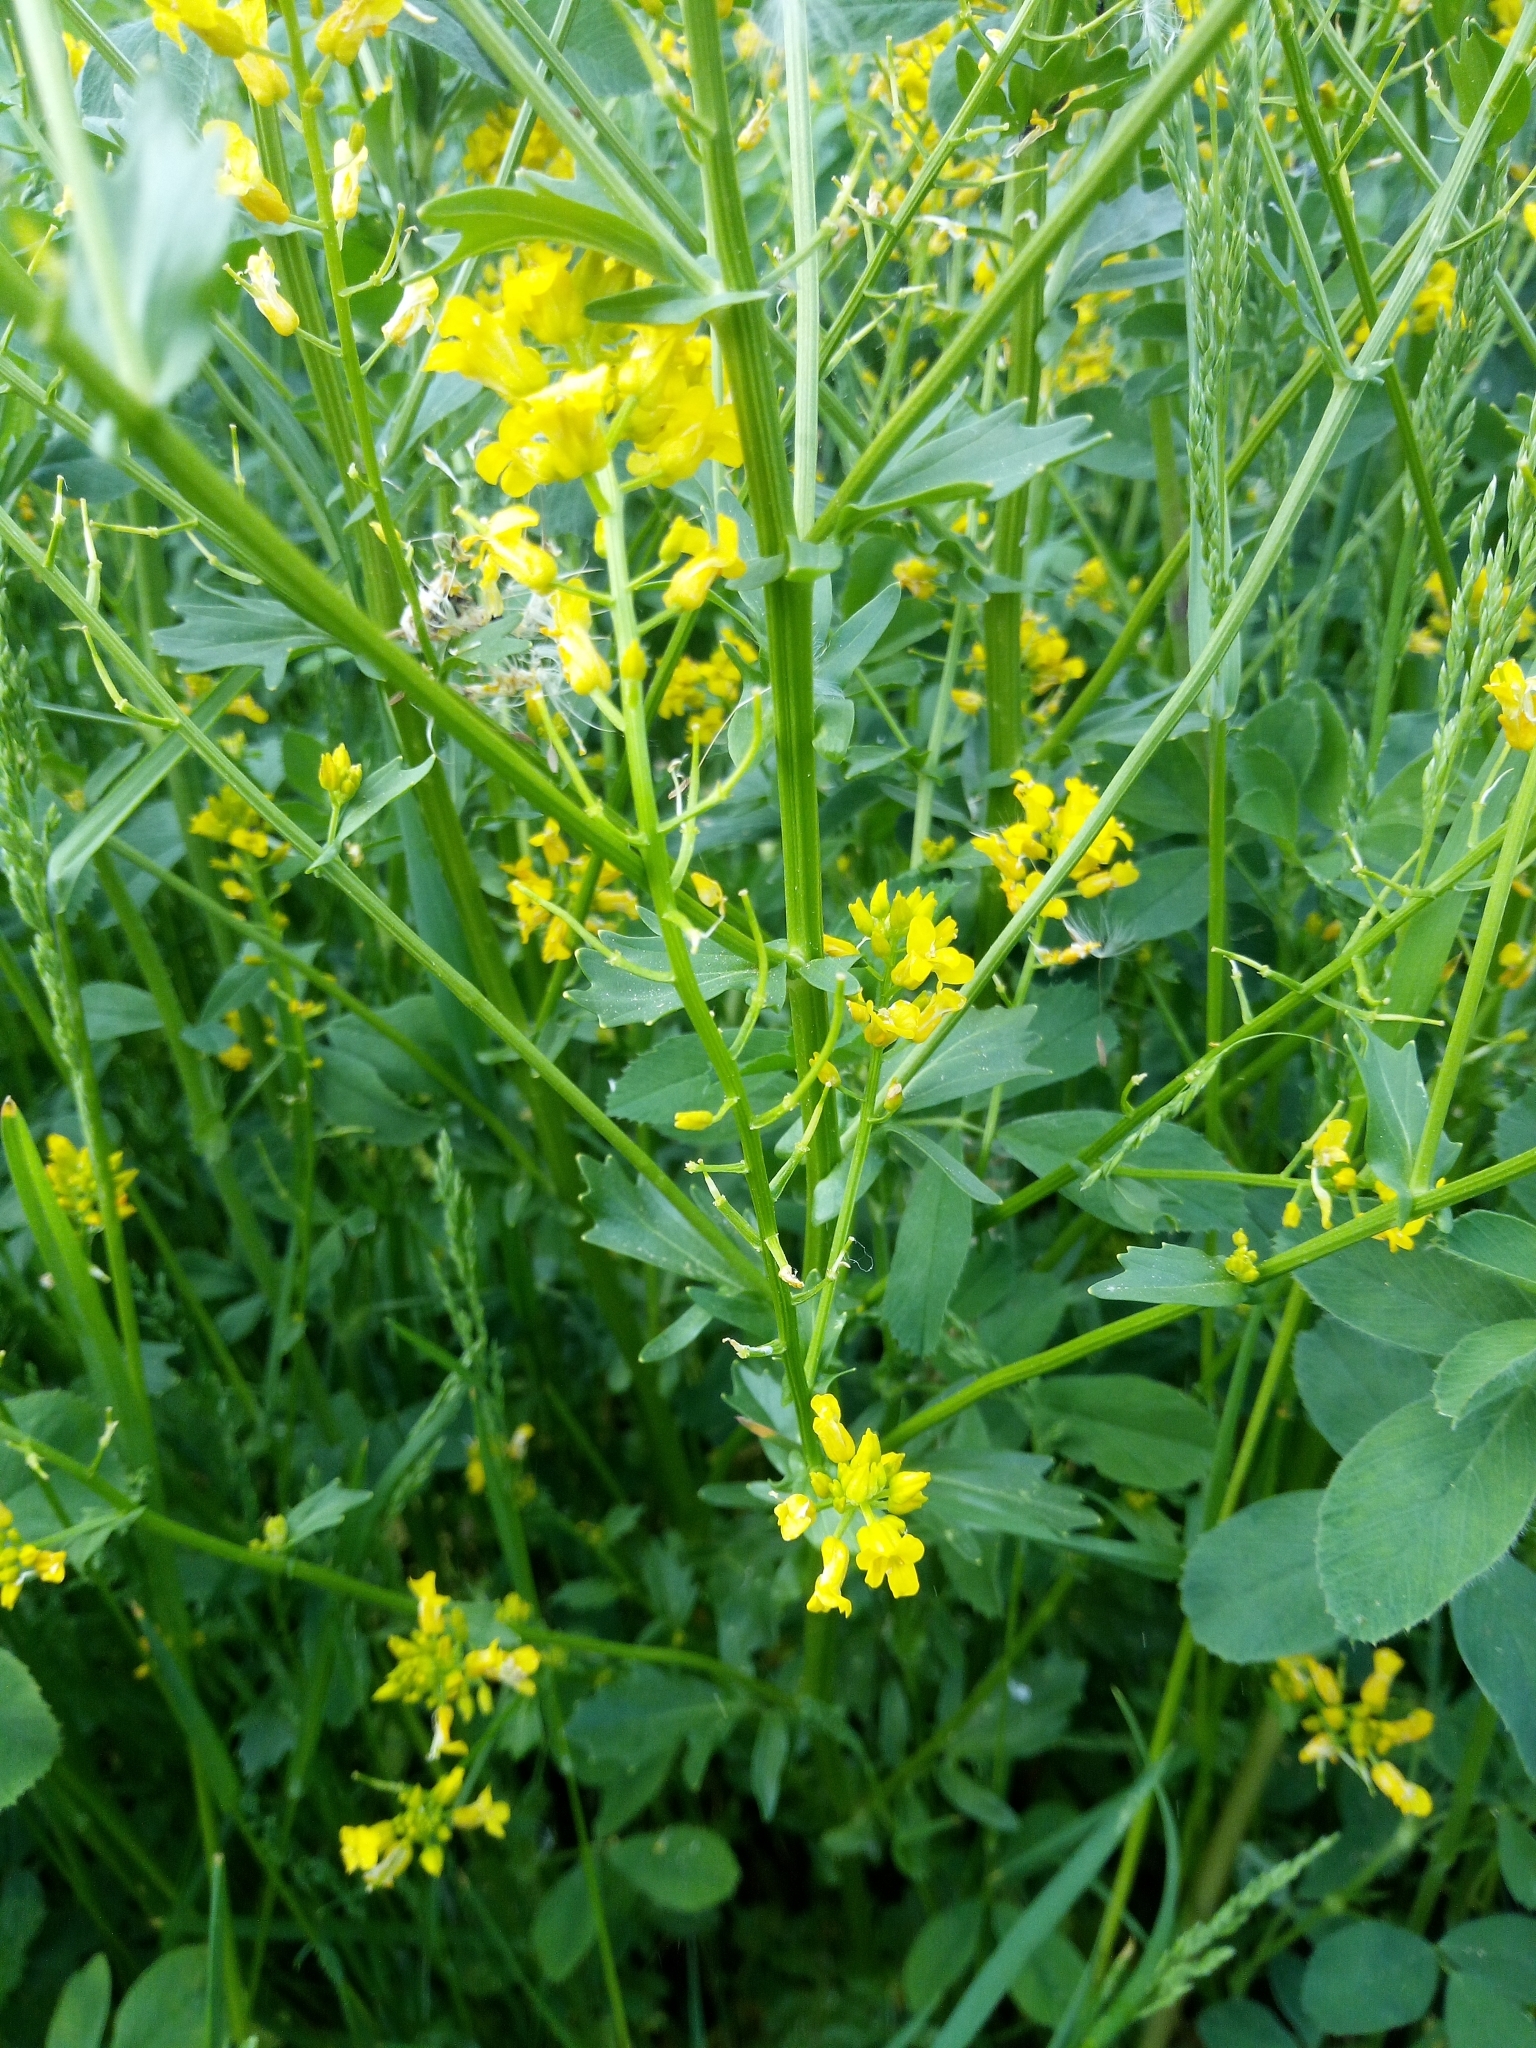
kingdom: Plantae
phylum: Tracheophyta
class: Magnoliopsida
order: Brassicales
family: Brassicaceae
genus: Barbarea
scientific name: Barbarea vulgaris
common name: Cressy-greens
